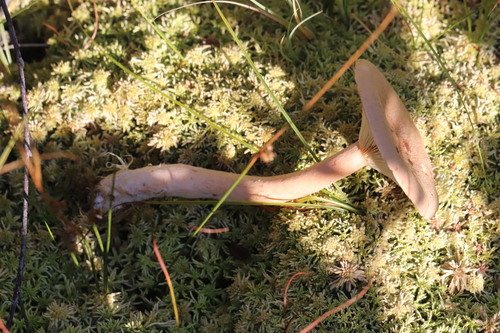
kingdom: Fungi
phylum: Basidiomycota
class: Agaricomycetes
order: Russulales
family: Russulaceae
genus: Lactarius
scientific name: Lactarius helvus
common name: Fenugreek milkcap
